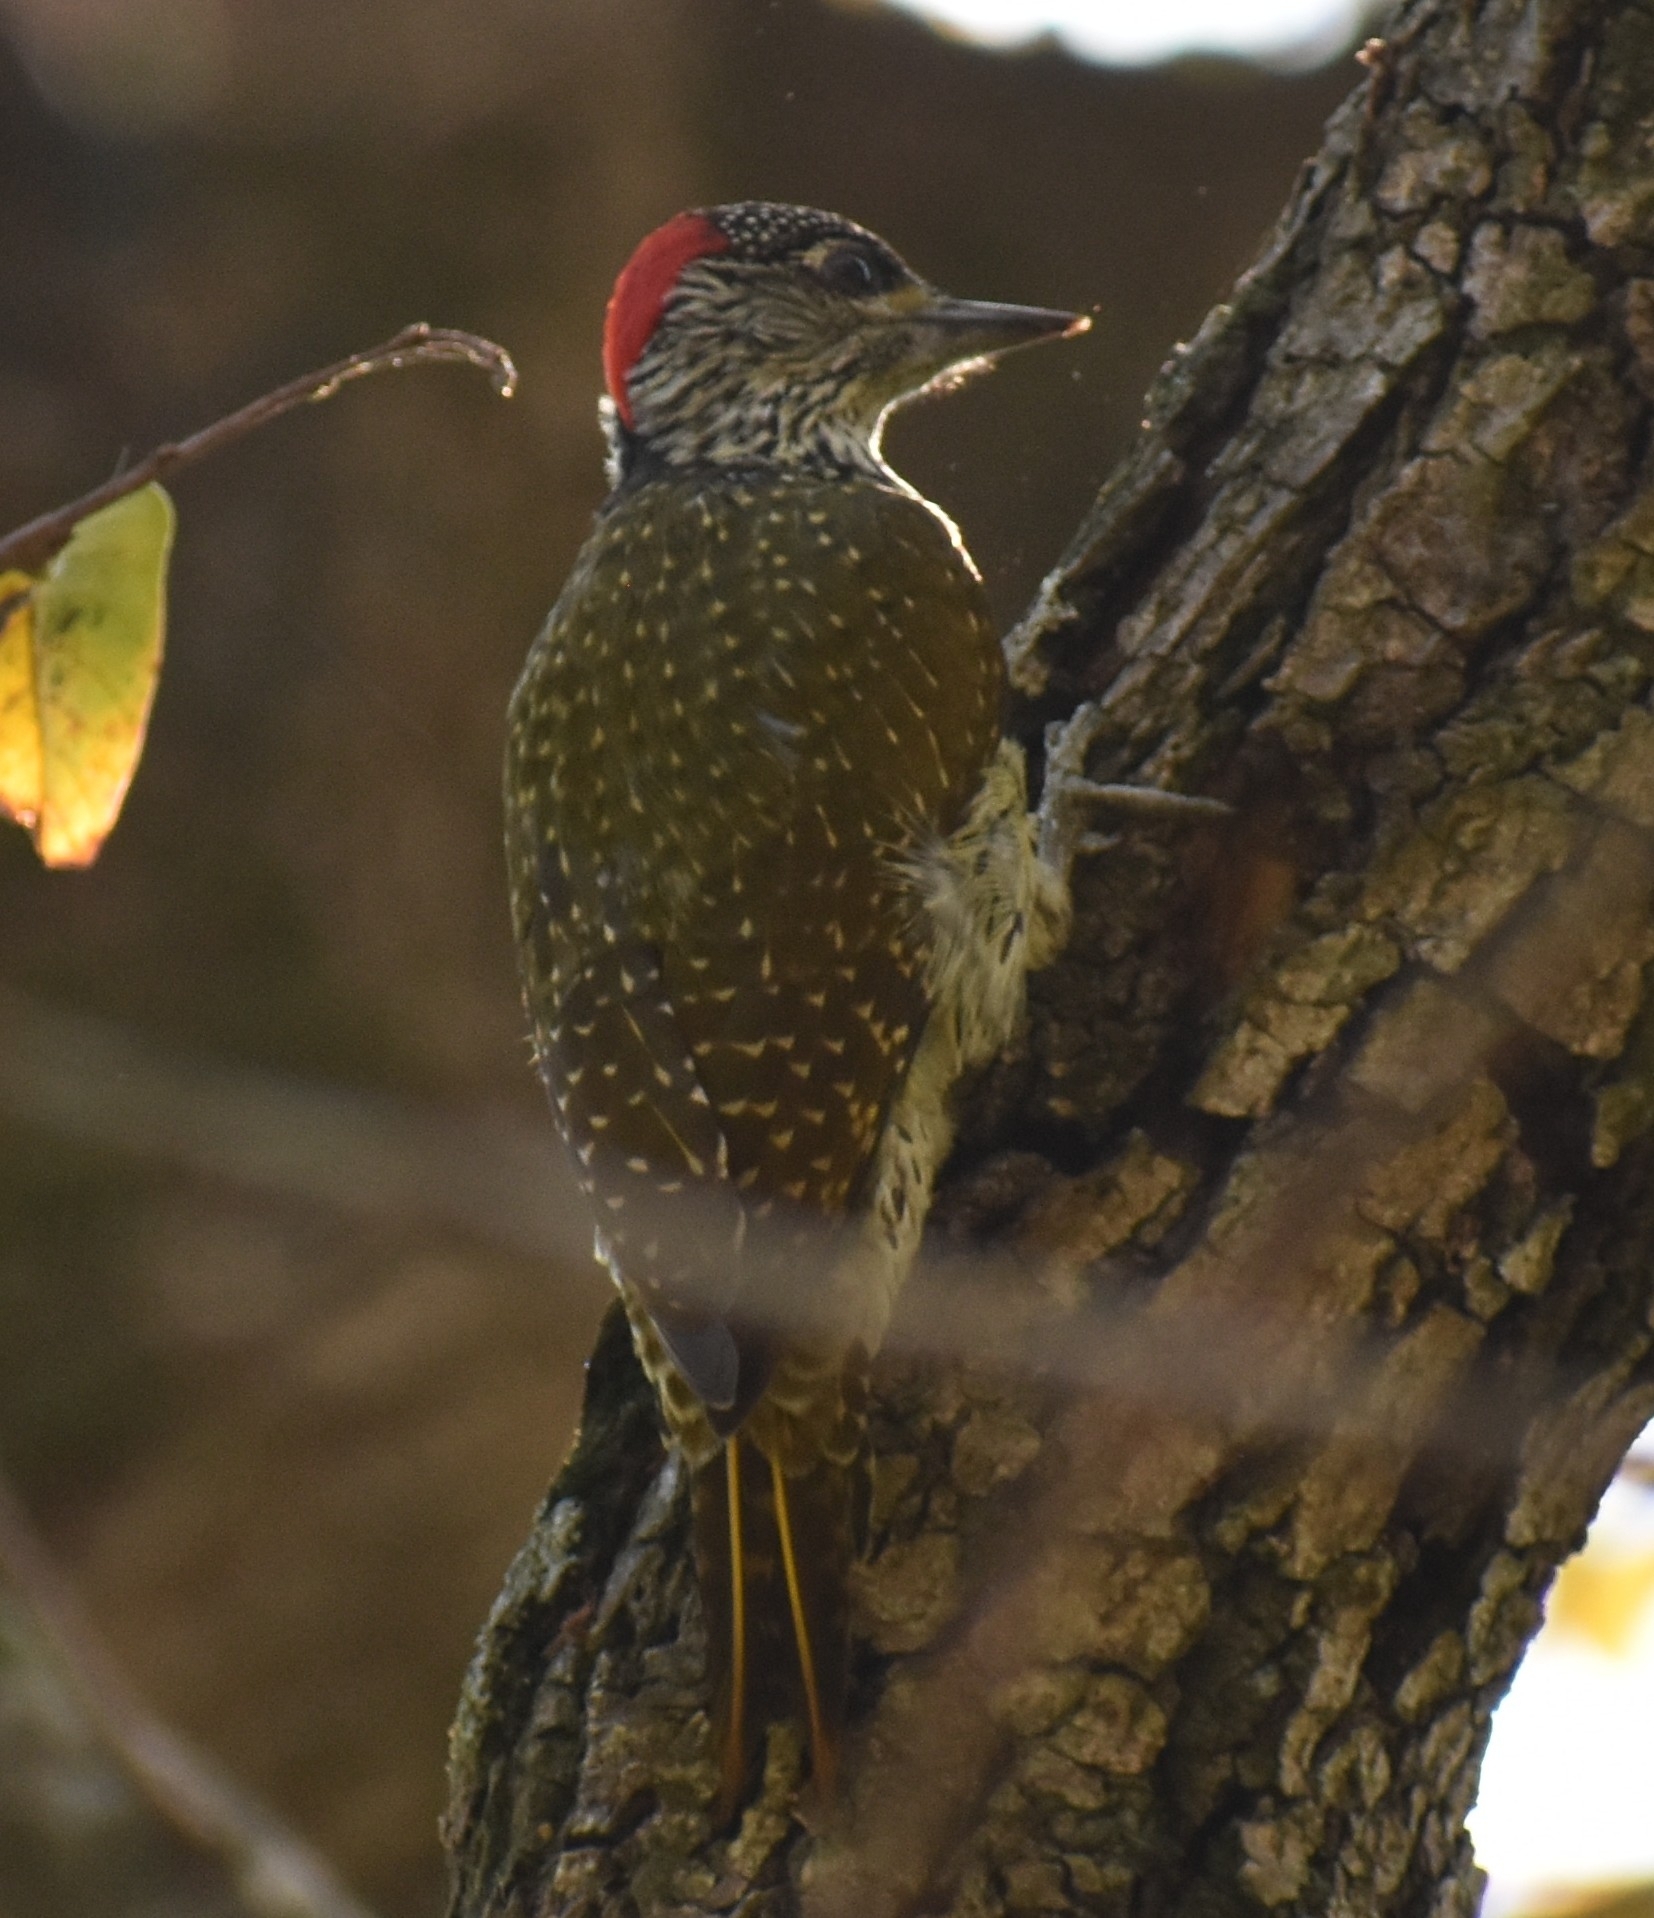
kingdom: Animalia
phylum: Chordata
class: Aves
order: Piciformes
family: Picidae
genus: Campethera
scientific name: Campethera abingoni
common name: Golden-tailed woodpecker
